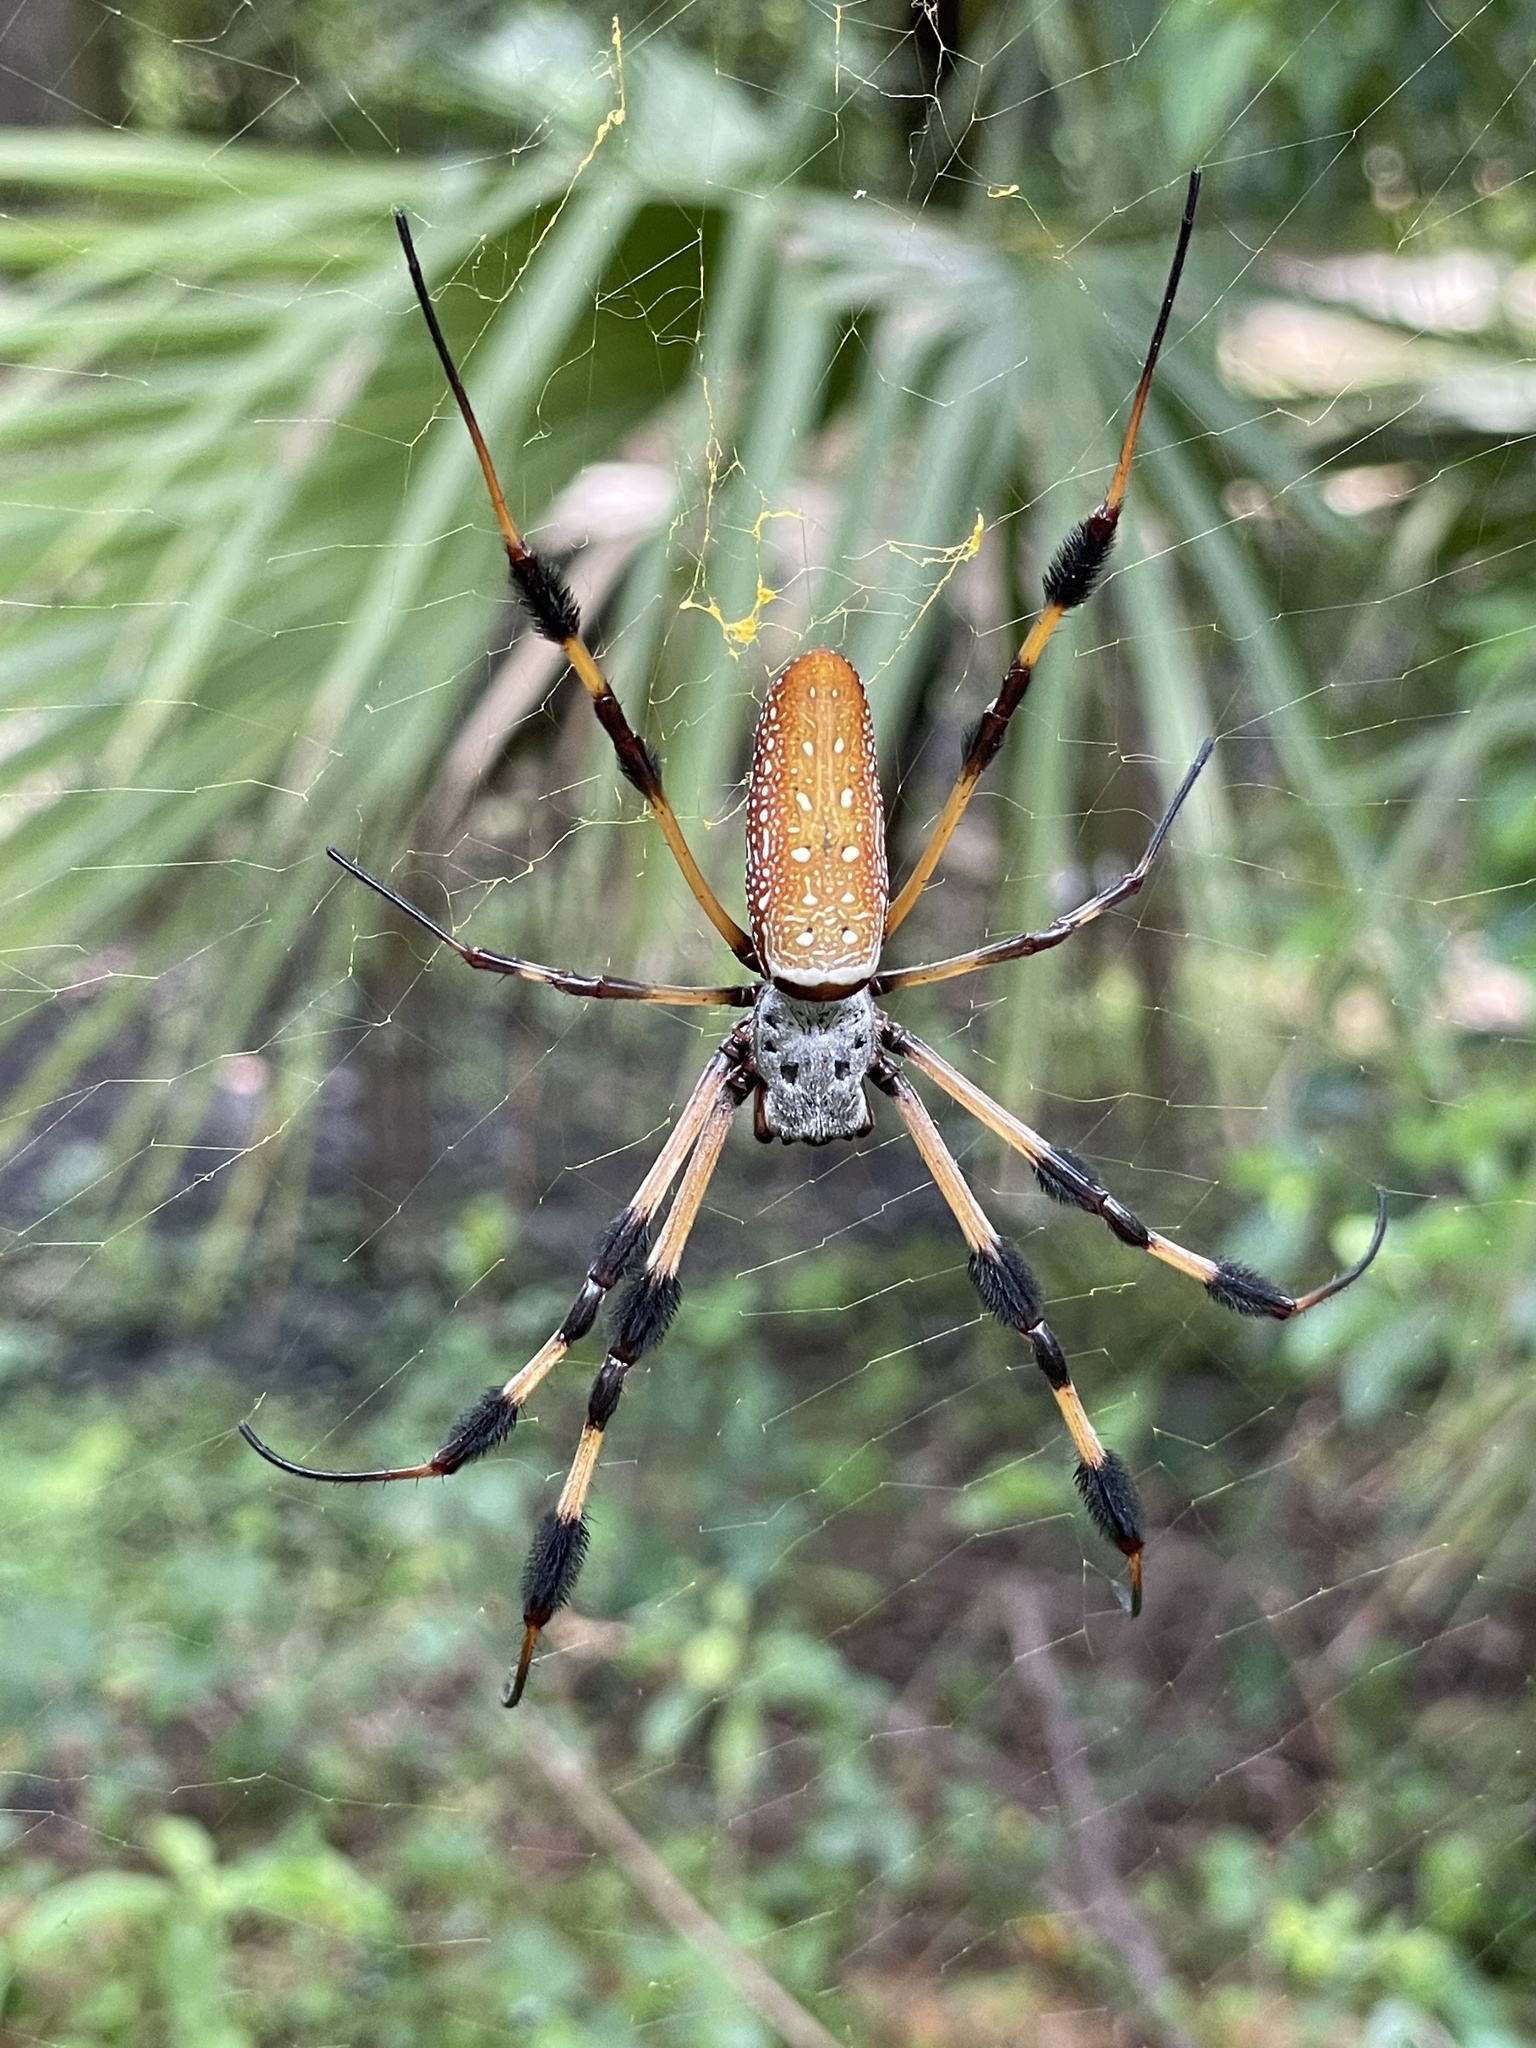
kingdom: Animalia
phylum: Arthropoda
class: Arachnida
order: Araneae
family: Araneidae
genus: Trichonephila
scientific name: Trichonephila clavipes
